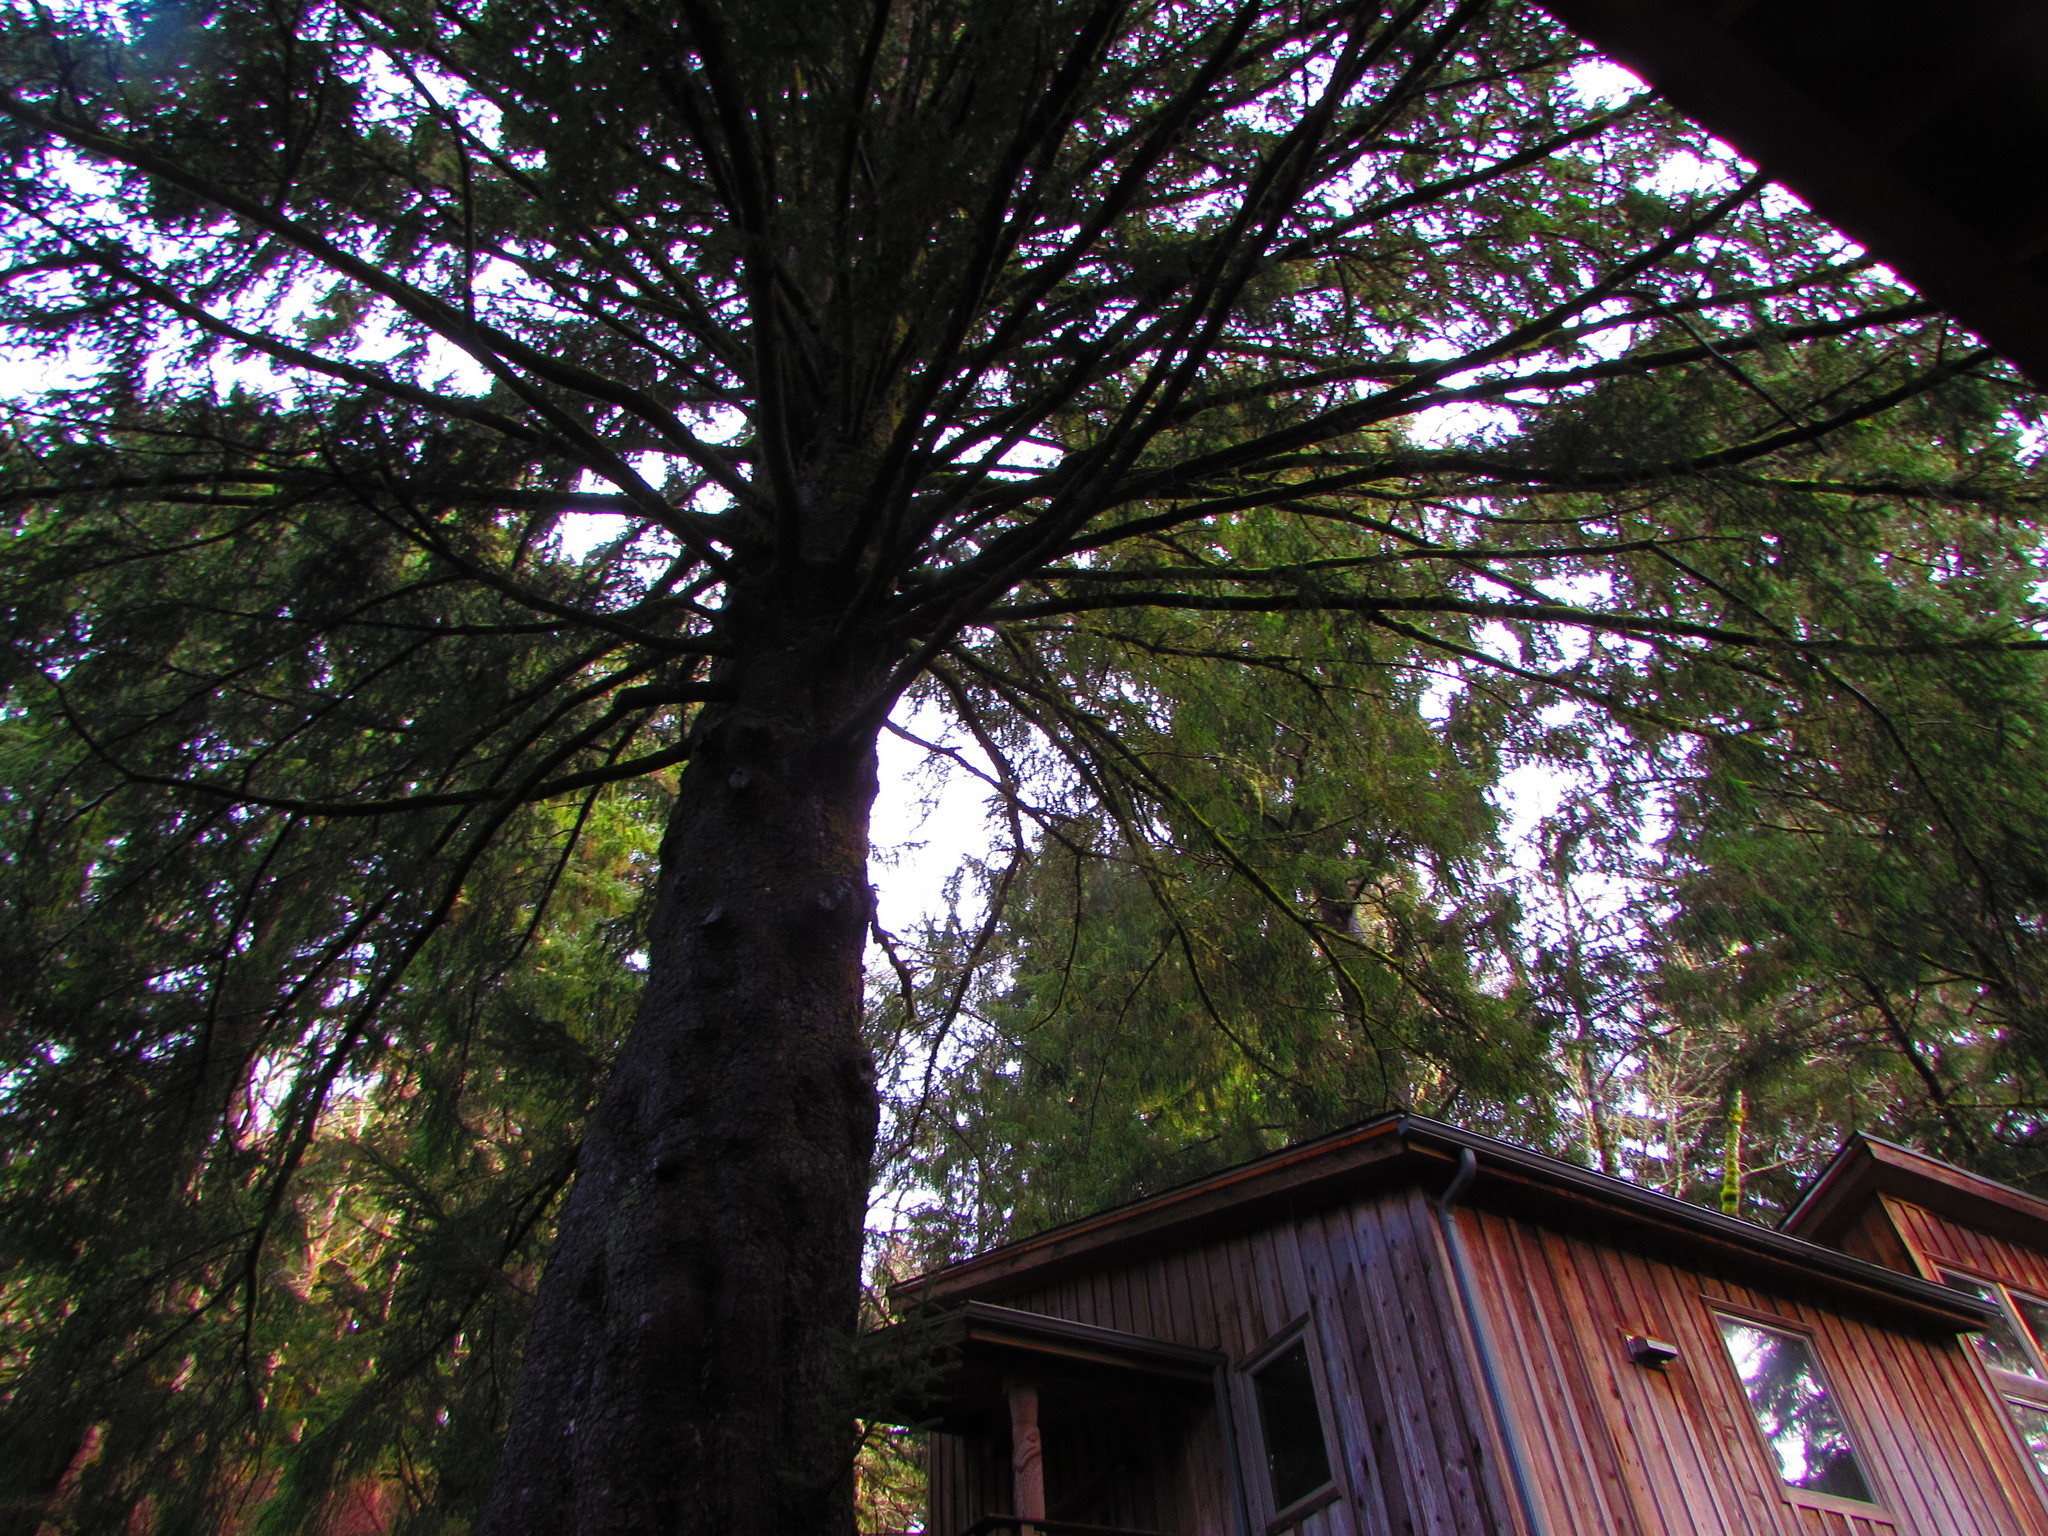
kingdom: Plantae
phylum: Tracheophyta
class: Pinopsida
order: Pinales
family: Pinaceae
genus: Picea
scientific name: Picea sitchensis
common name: Sitka spruce
